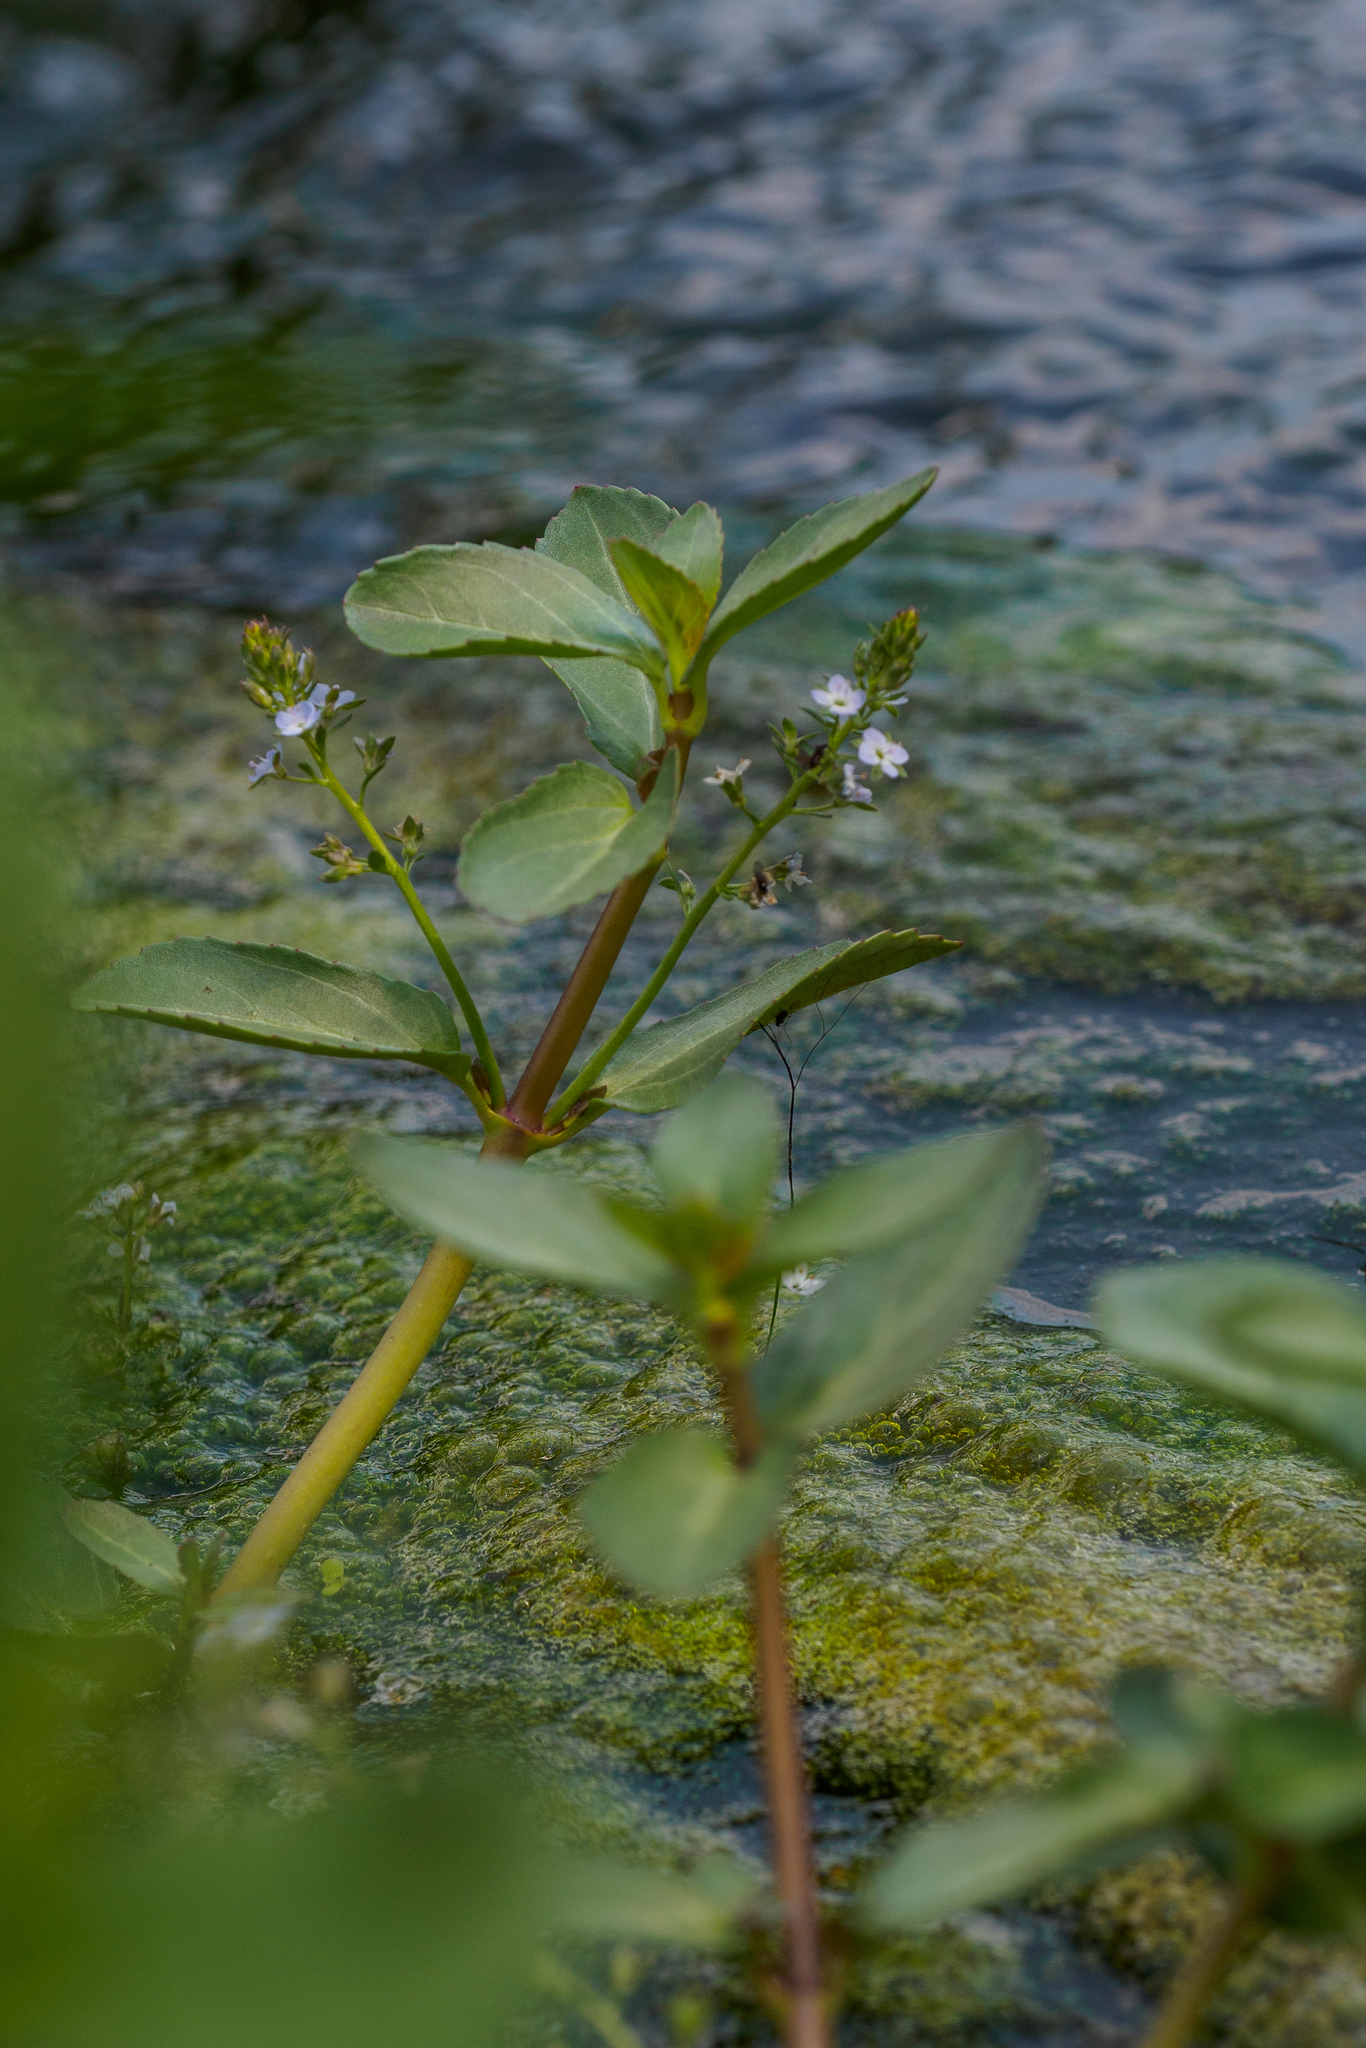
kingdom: Plantae
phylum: Tracheophyta
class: Magnoliopsida
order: Lamiales
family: Plantaginaceae
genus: Veronica
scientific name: Veronica beccabunga
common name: Brooklime
